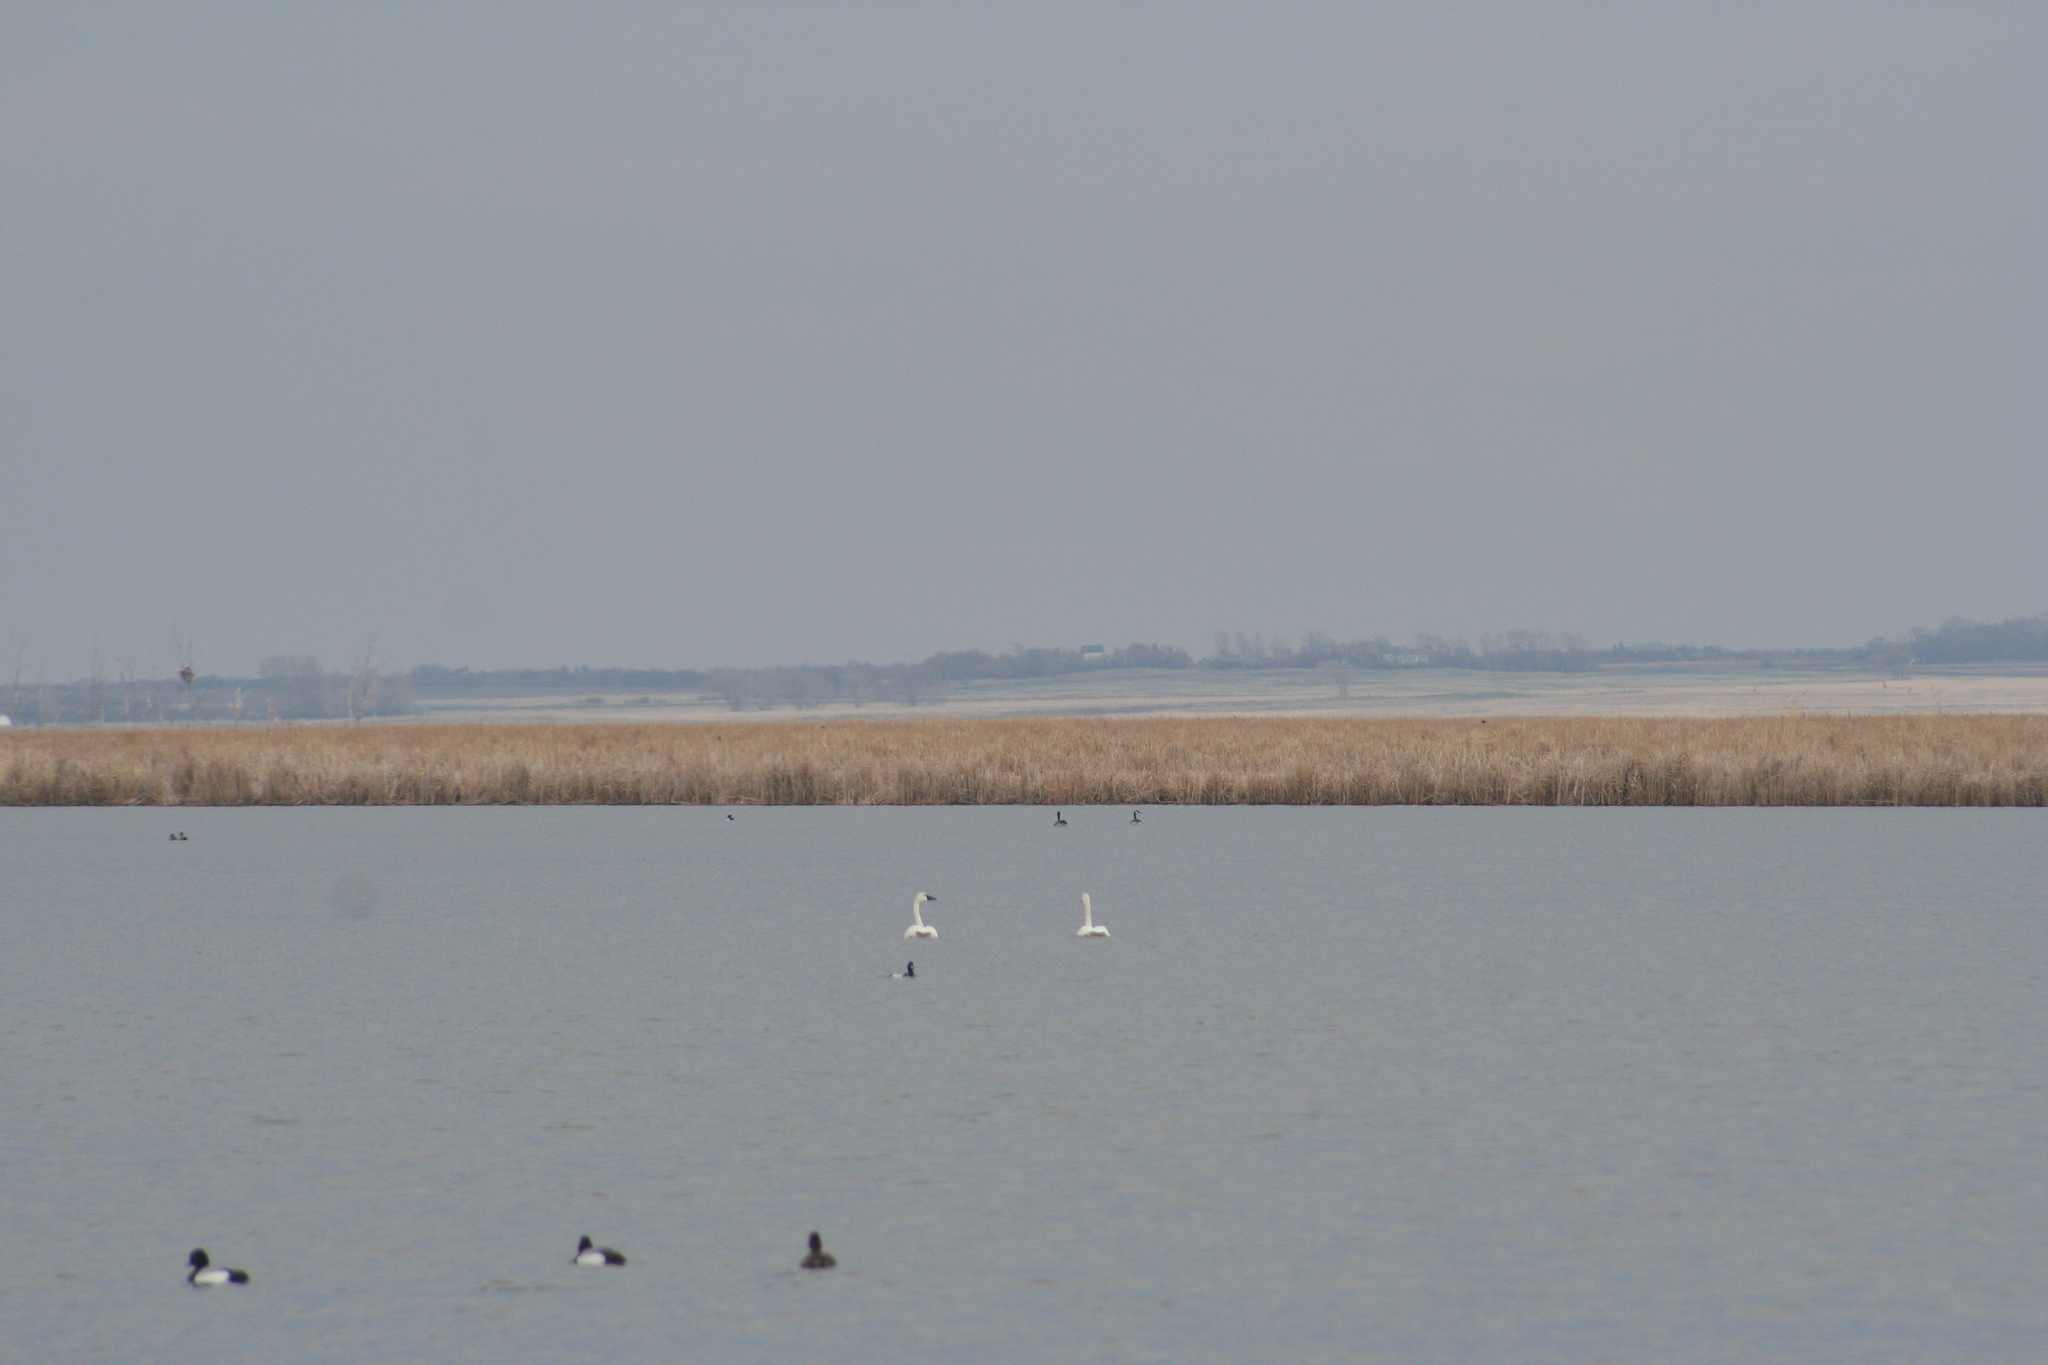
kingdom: Animalia
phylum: Chordata
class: Aves
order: Anseriformes
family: Anatidae
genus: Cygnus
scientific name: Cygnus columbianus
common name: Tundra swan
